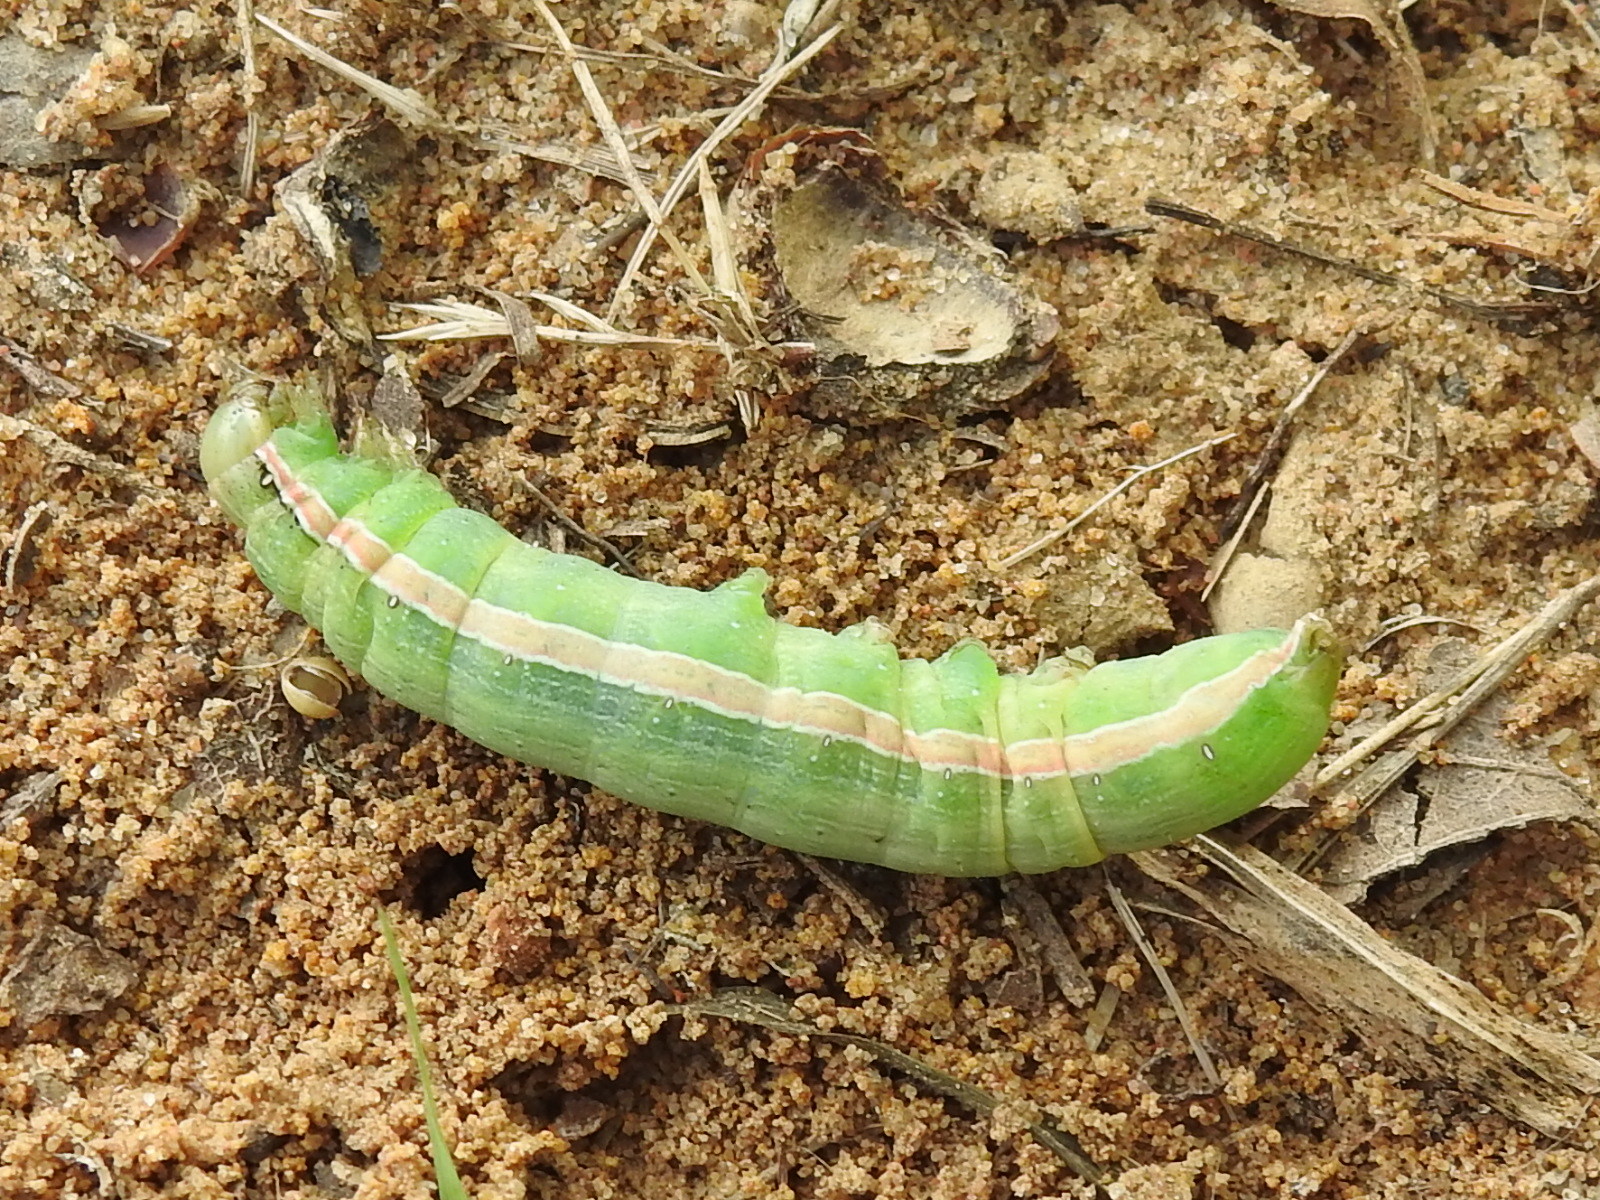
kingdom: Animalia
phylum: Arthropoda
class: Insecta
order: Lepidoptera
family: Noctuidae
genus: Anicla
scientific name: Anicla infecta
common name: Green cutworm
